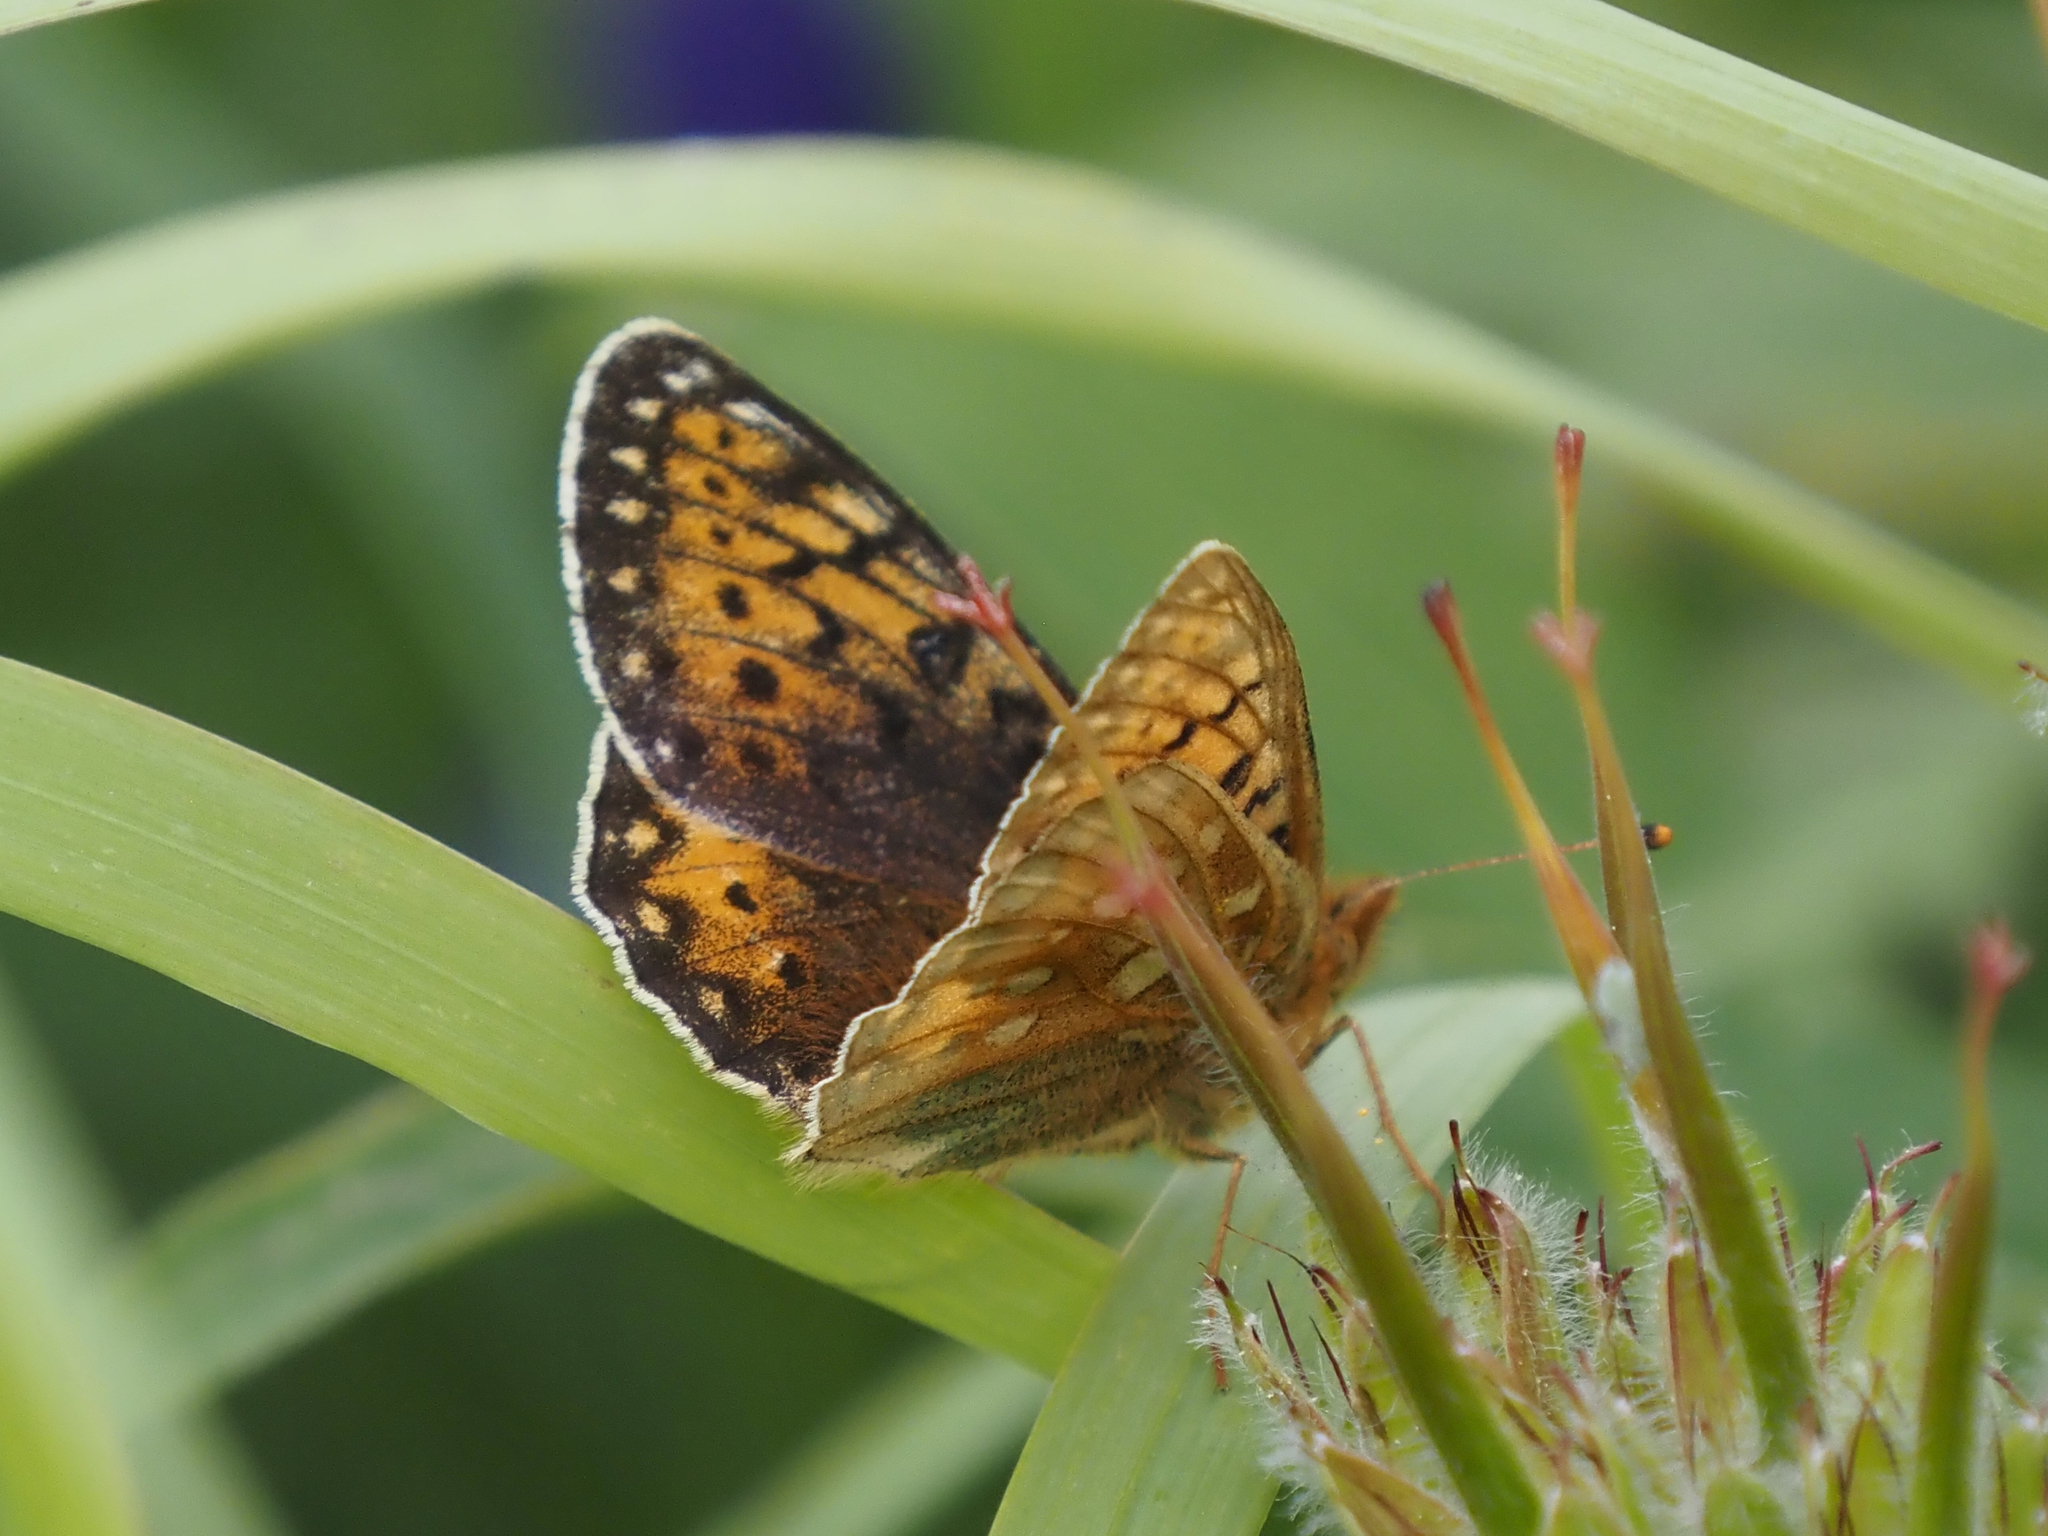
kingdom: Animalia
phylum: Arthropoda
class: Insecta
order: Lepidoptera
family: Nymphalidae
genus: Speyeria
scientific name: Speyeria mormonia
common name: Mormon fritillary
